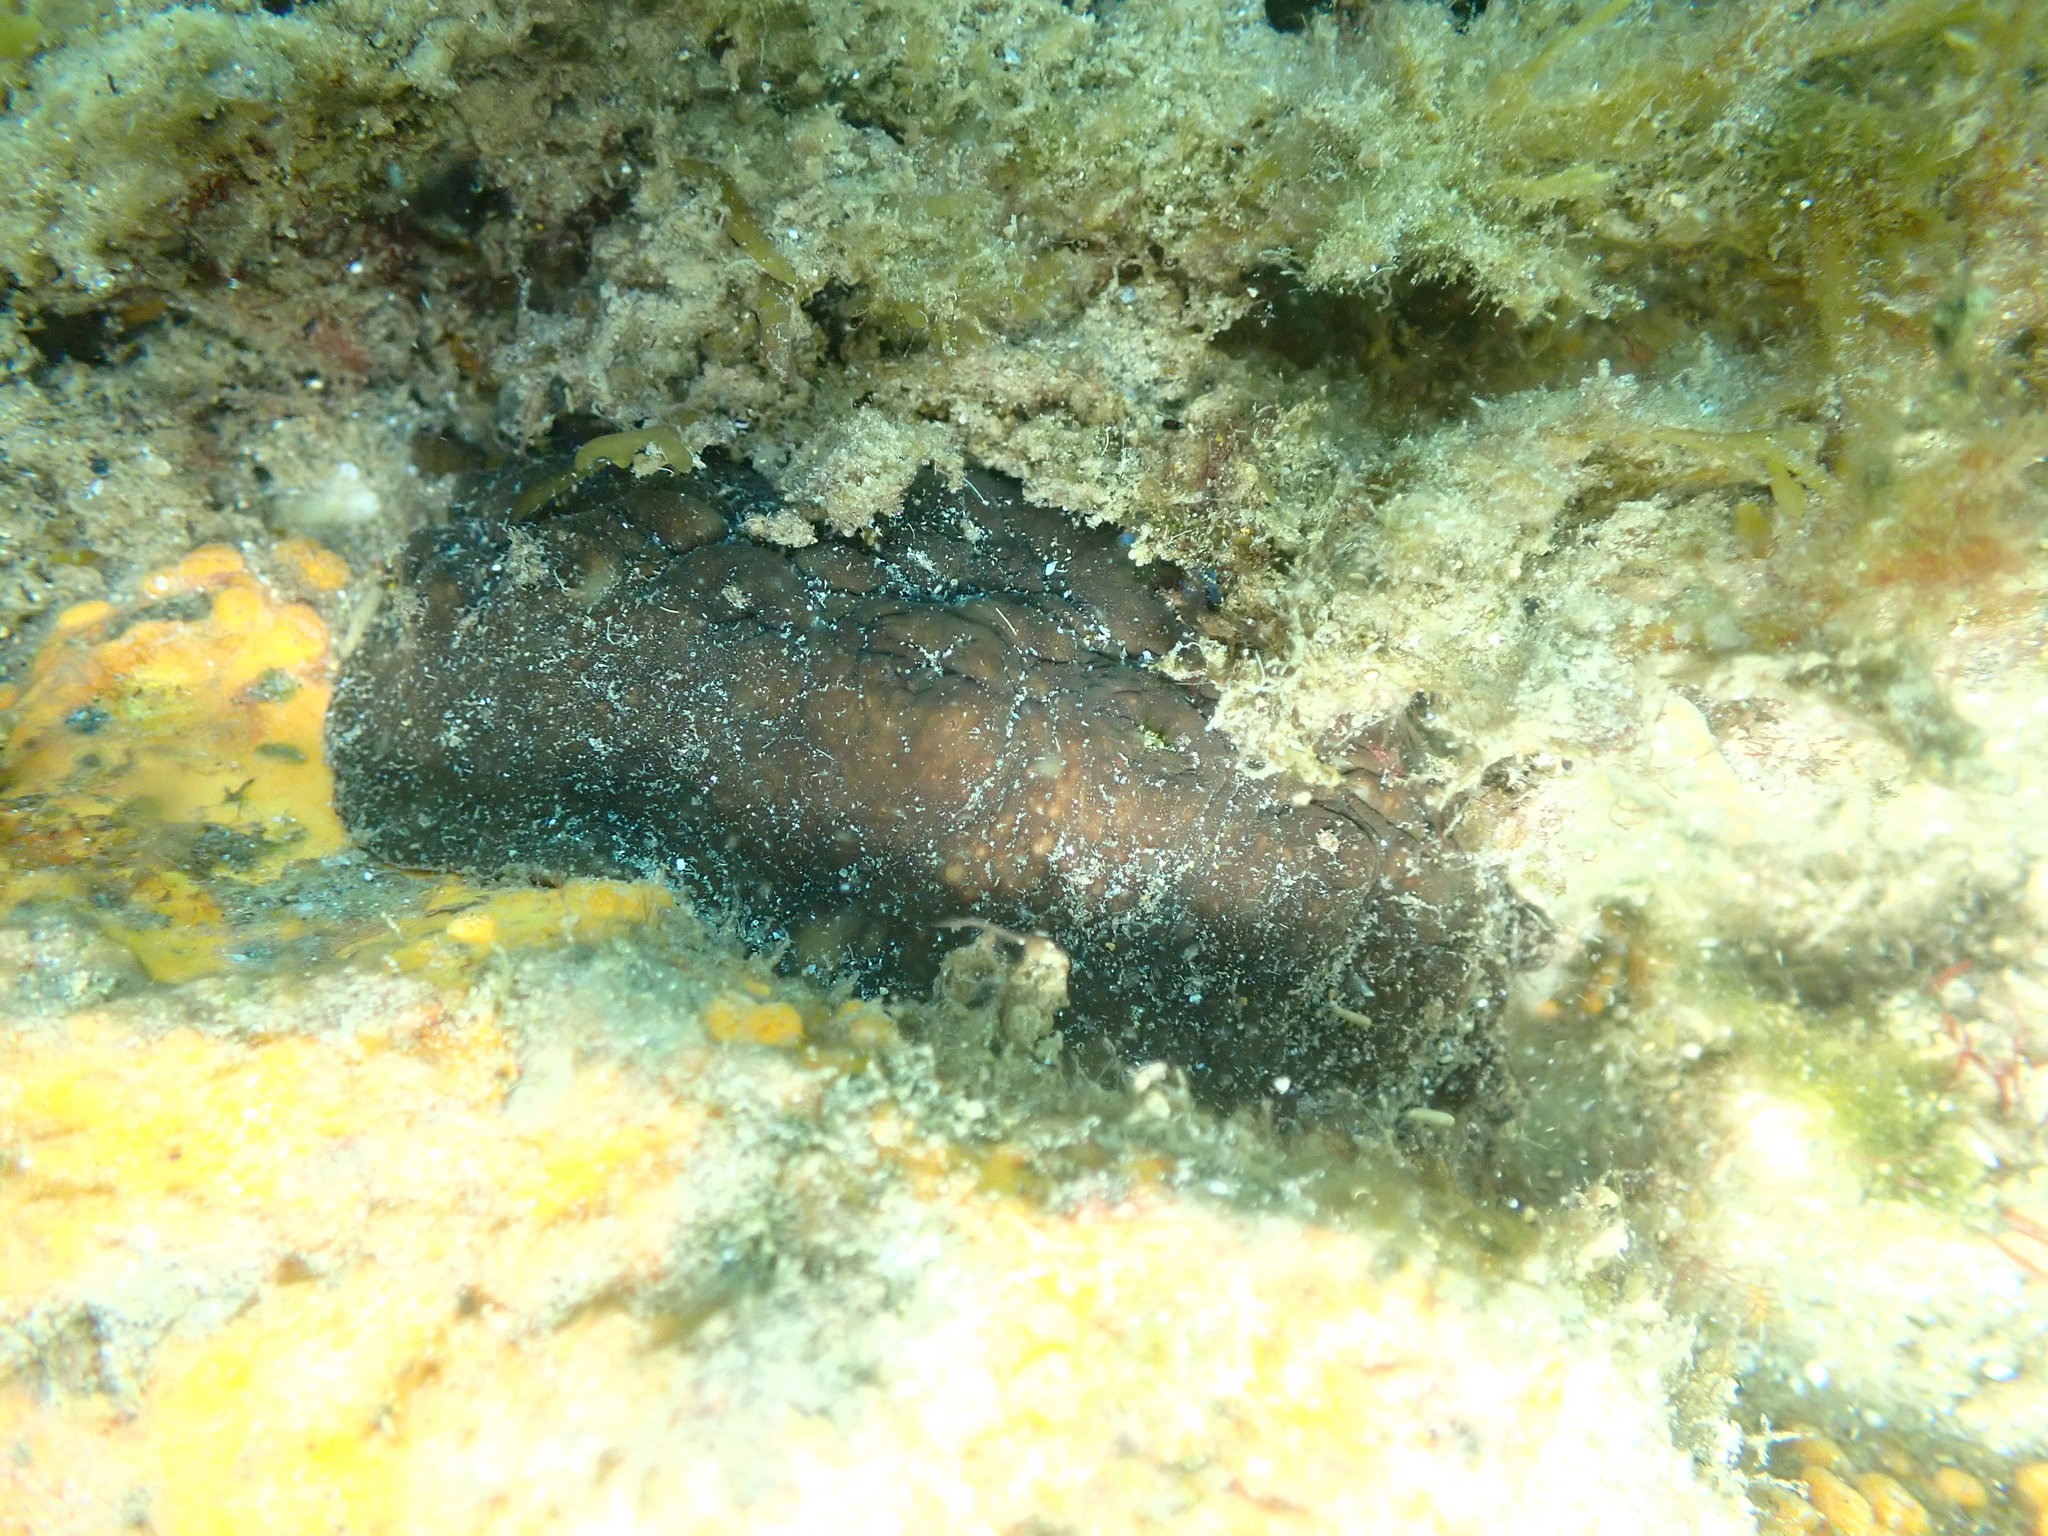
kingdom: Animalia
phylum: Mollusca
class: Polyplacophora
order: Chitonida
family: Acanthochitonidae
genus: Cryptoconchus
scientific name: Cryptoconchus porosus
